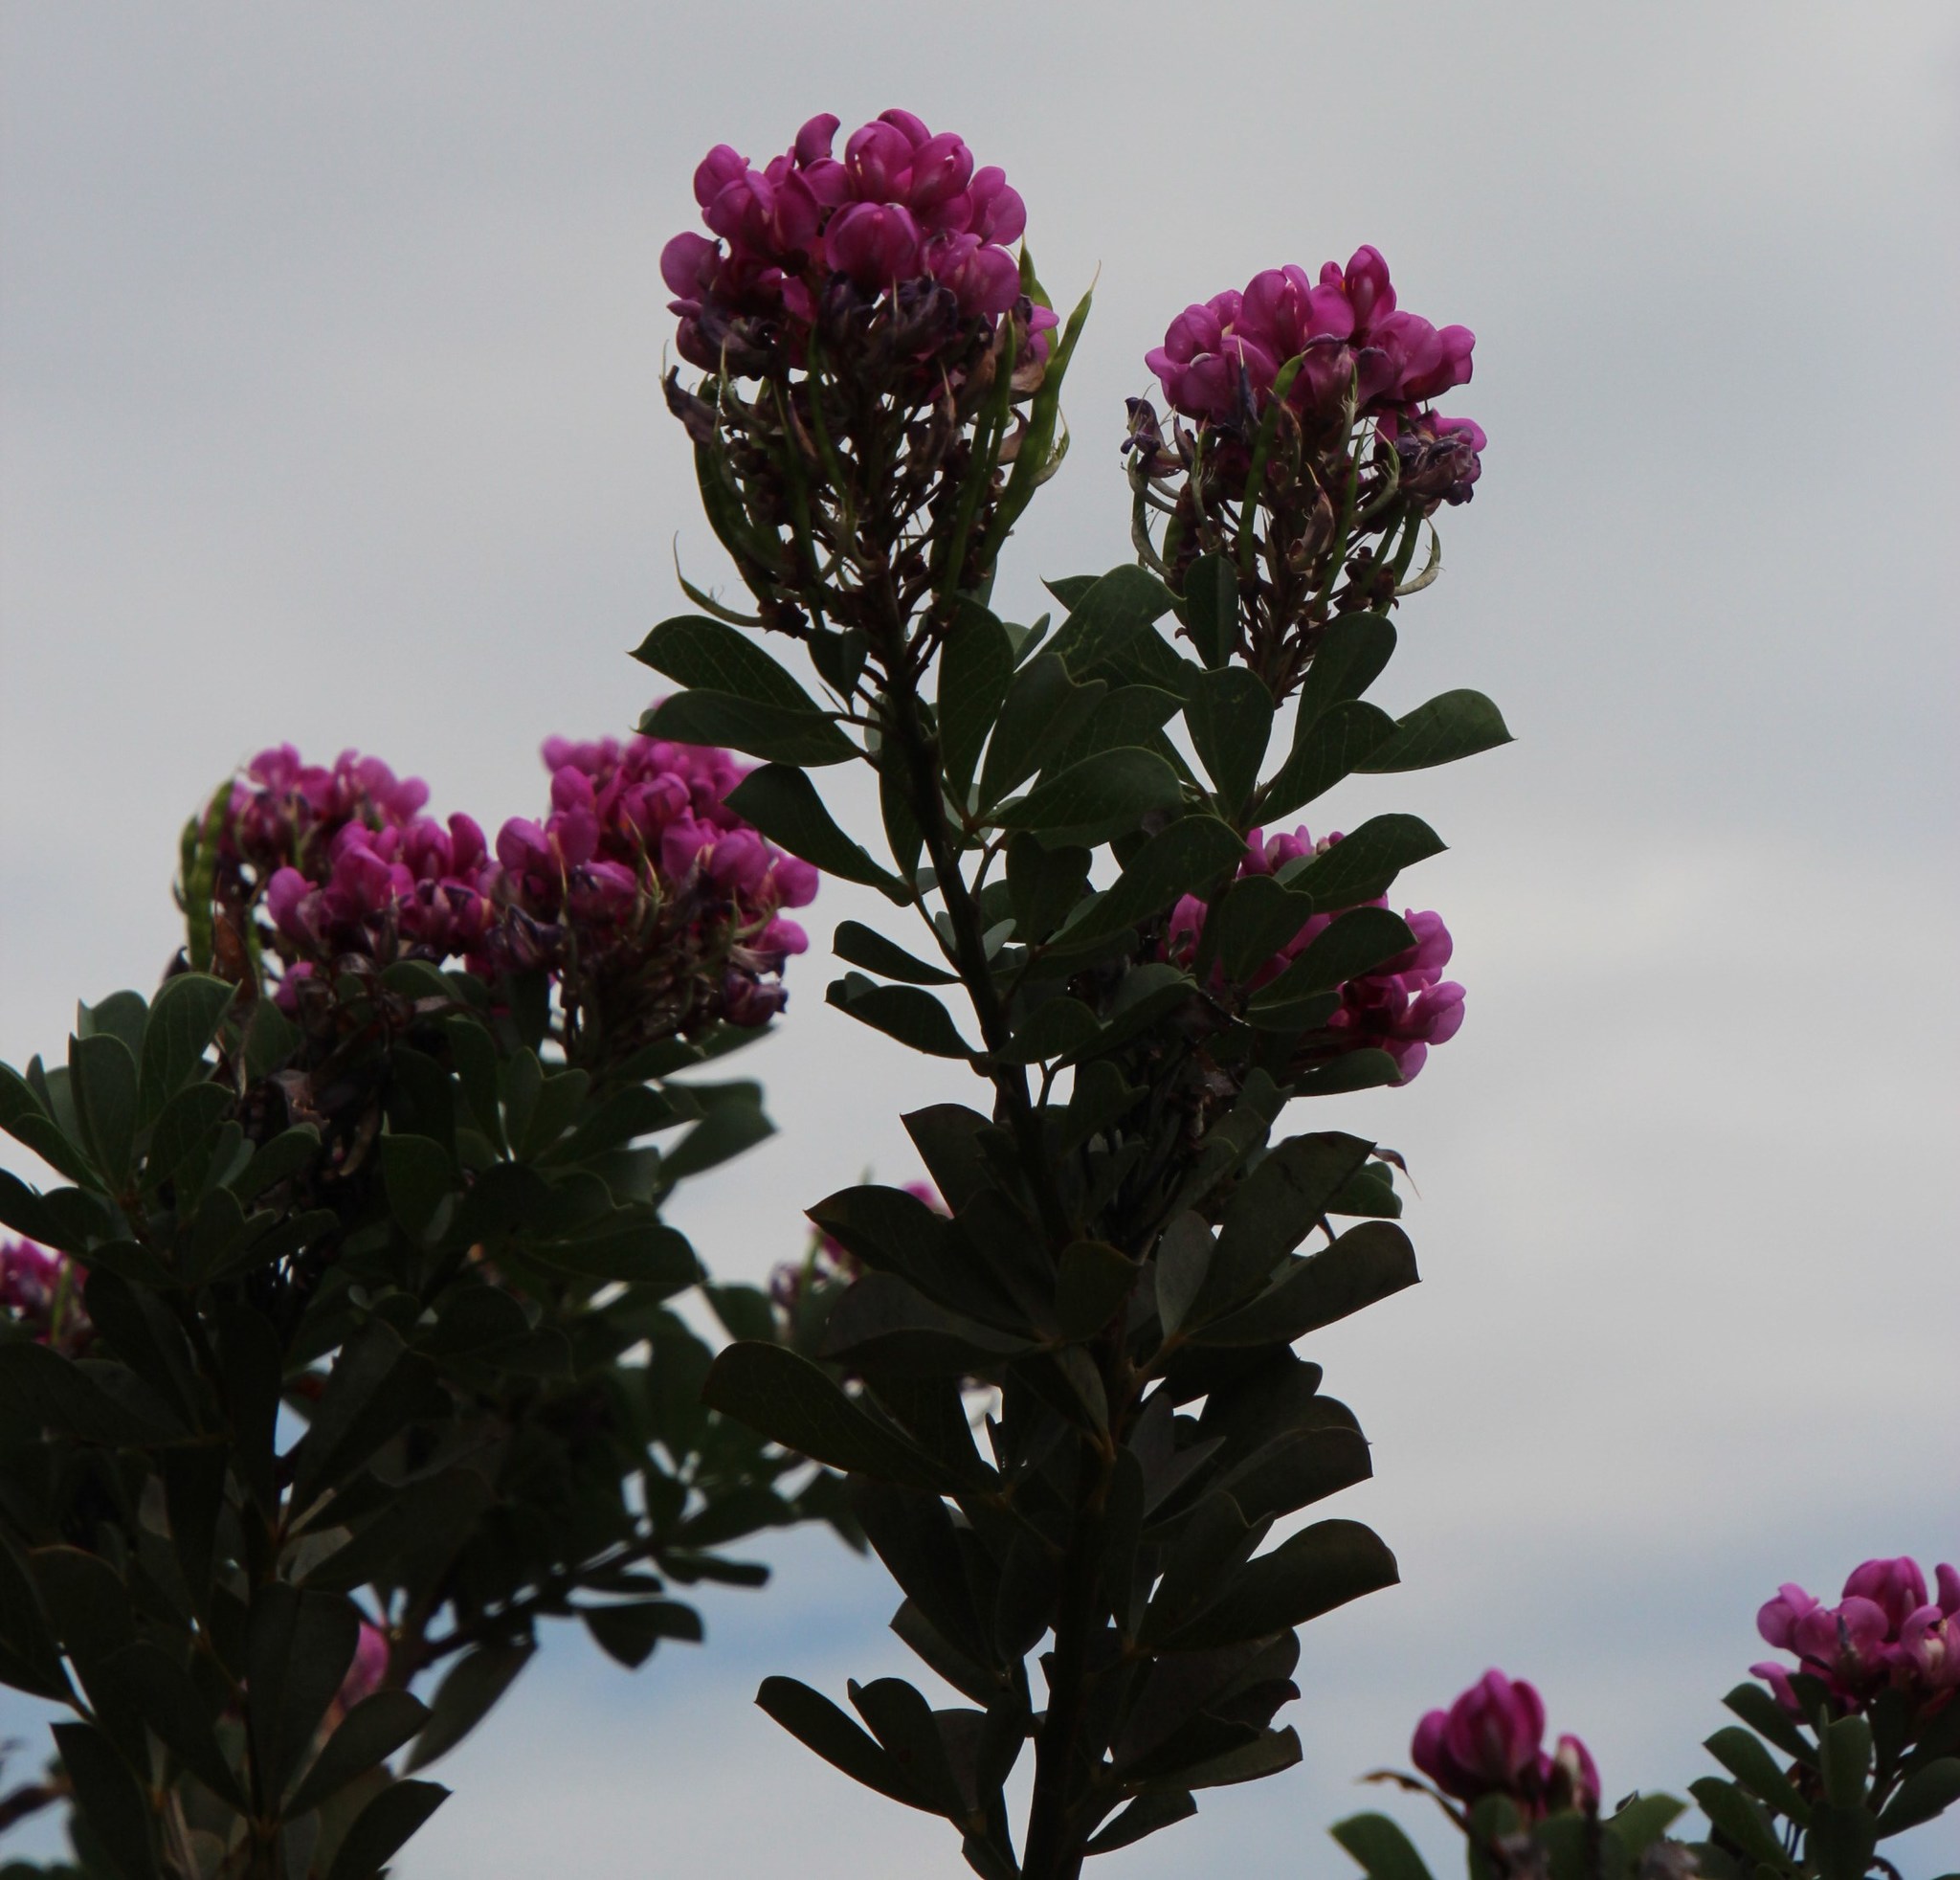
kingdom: Plantae
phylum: Tracheophyta
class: Magnoliopsida
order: Fabales
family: Fabaceae
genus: Hypocalyptus
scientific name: Hypocalyptus sophoroides
